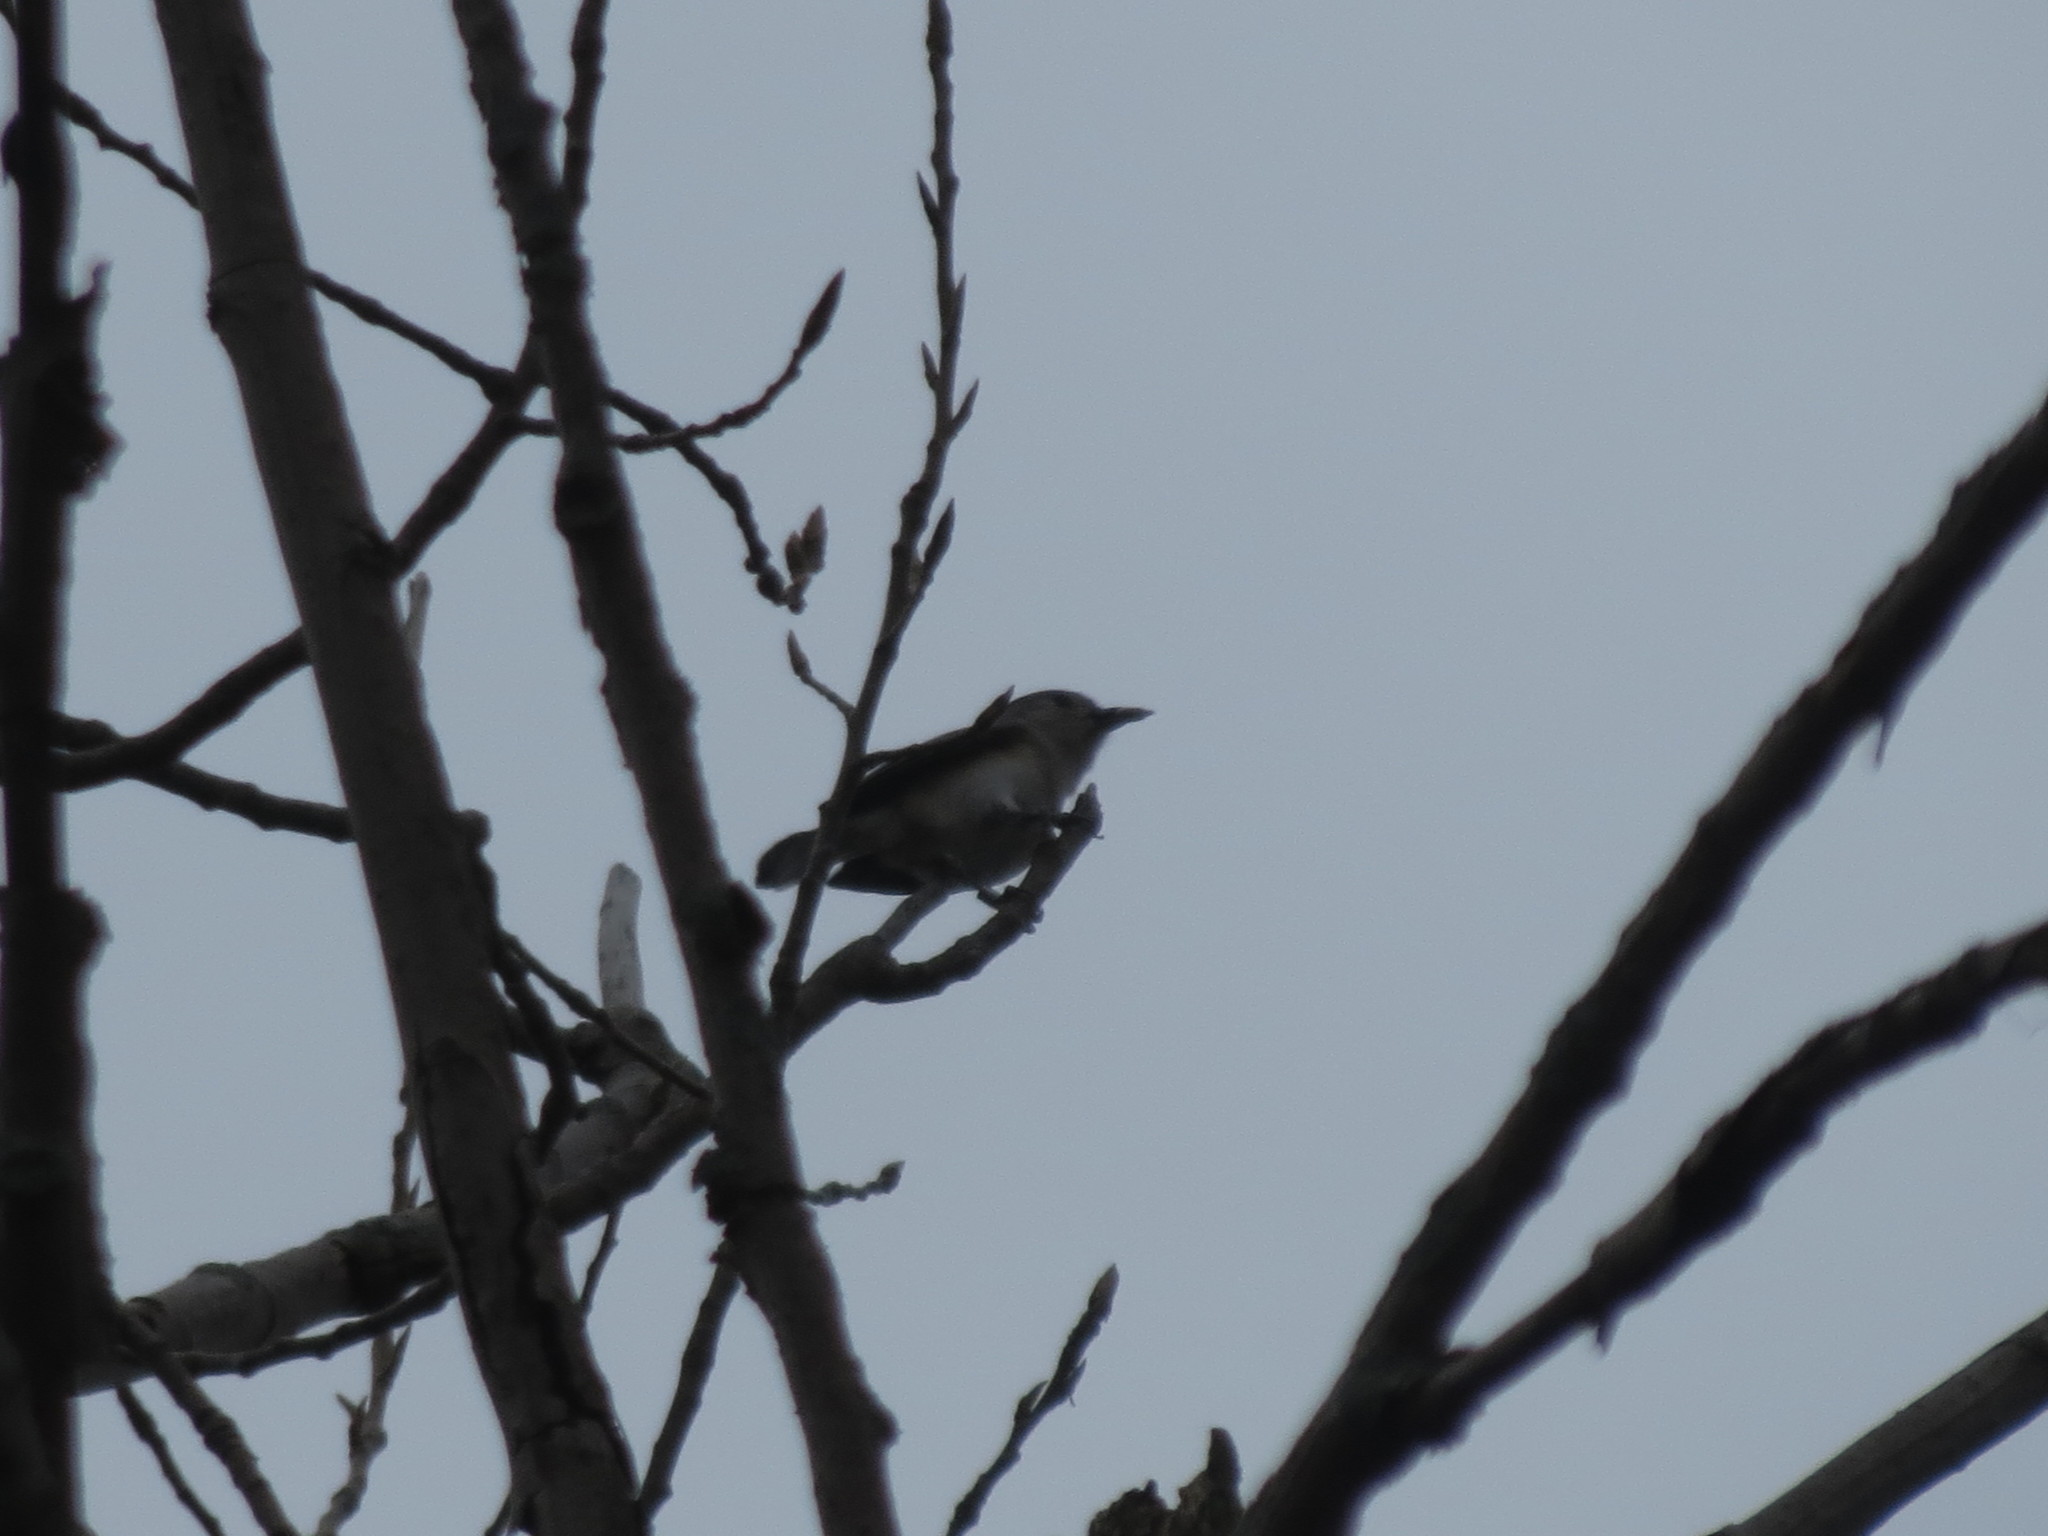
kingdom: Animalia
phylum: Chordata
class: Aves
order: Passeriformes
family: Paridae
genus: Baeolophus
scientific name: Baeolophus bicolor
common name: Tufted titmouse
